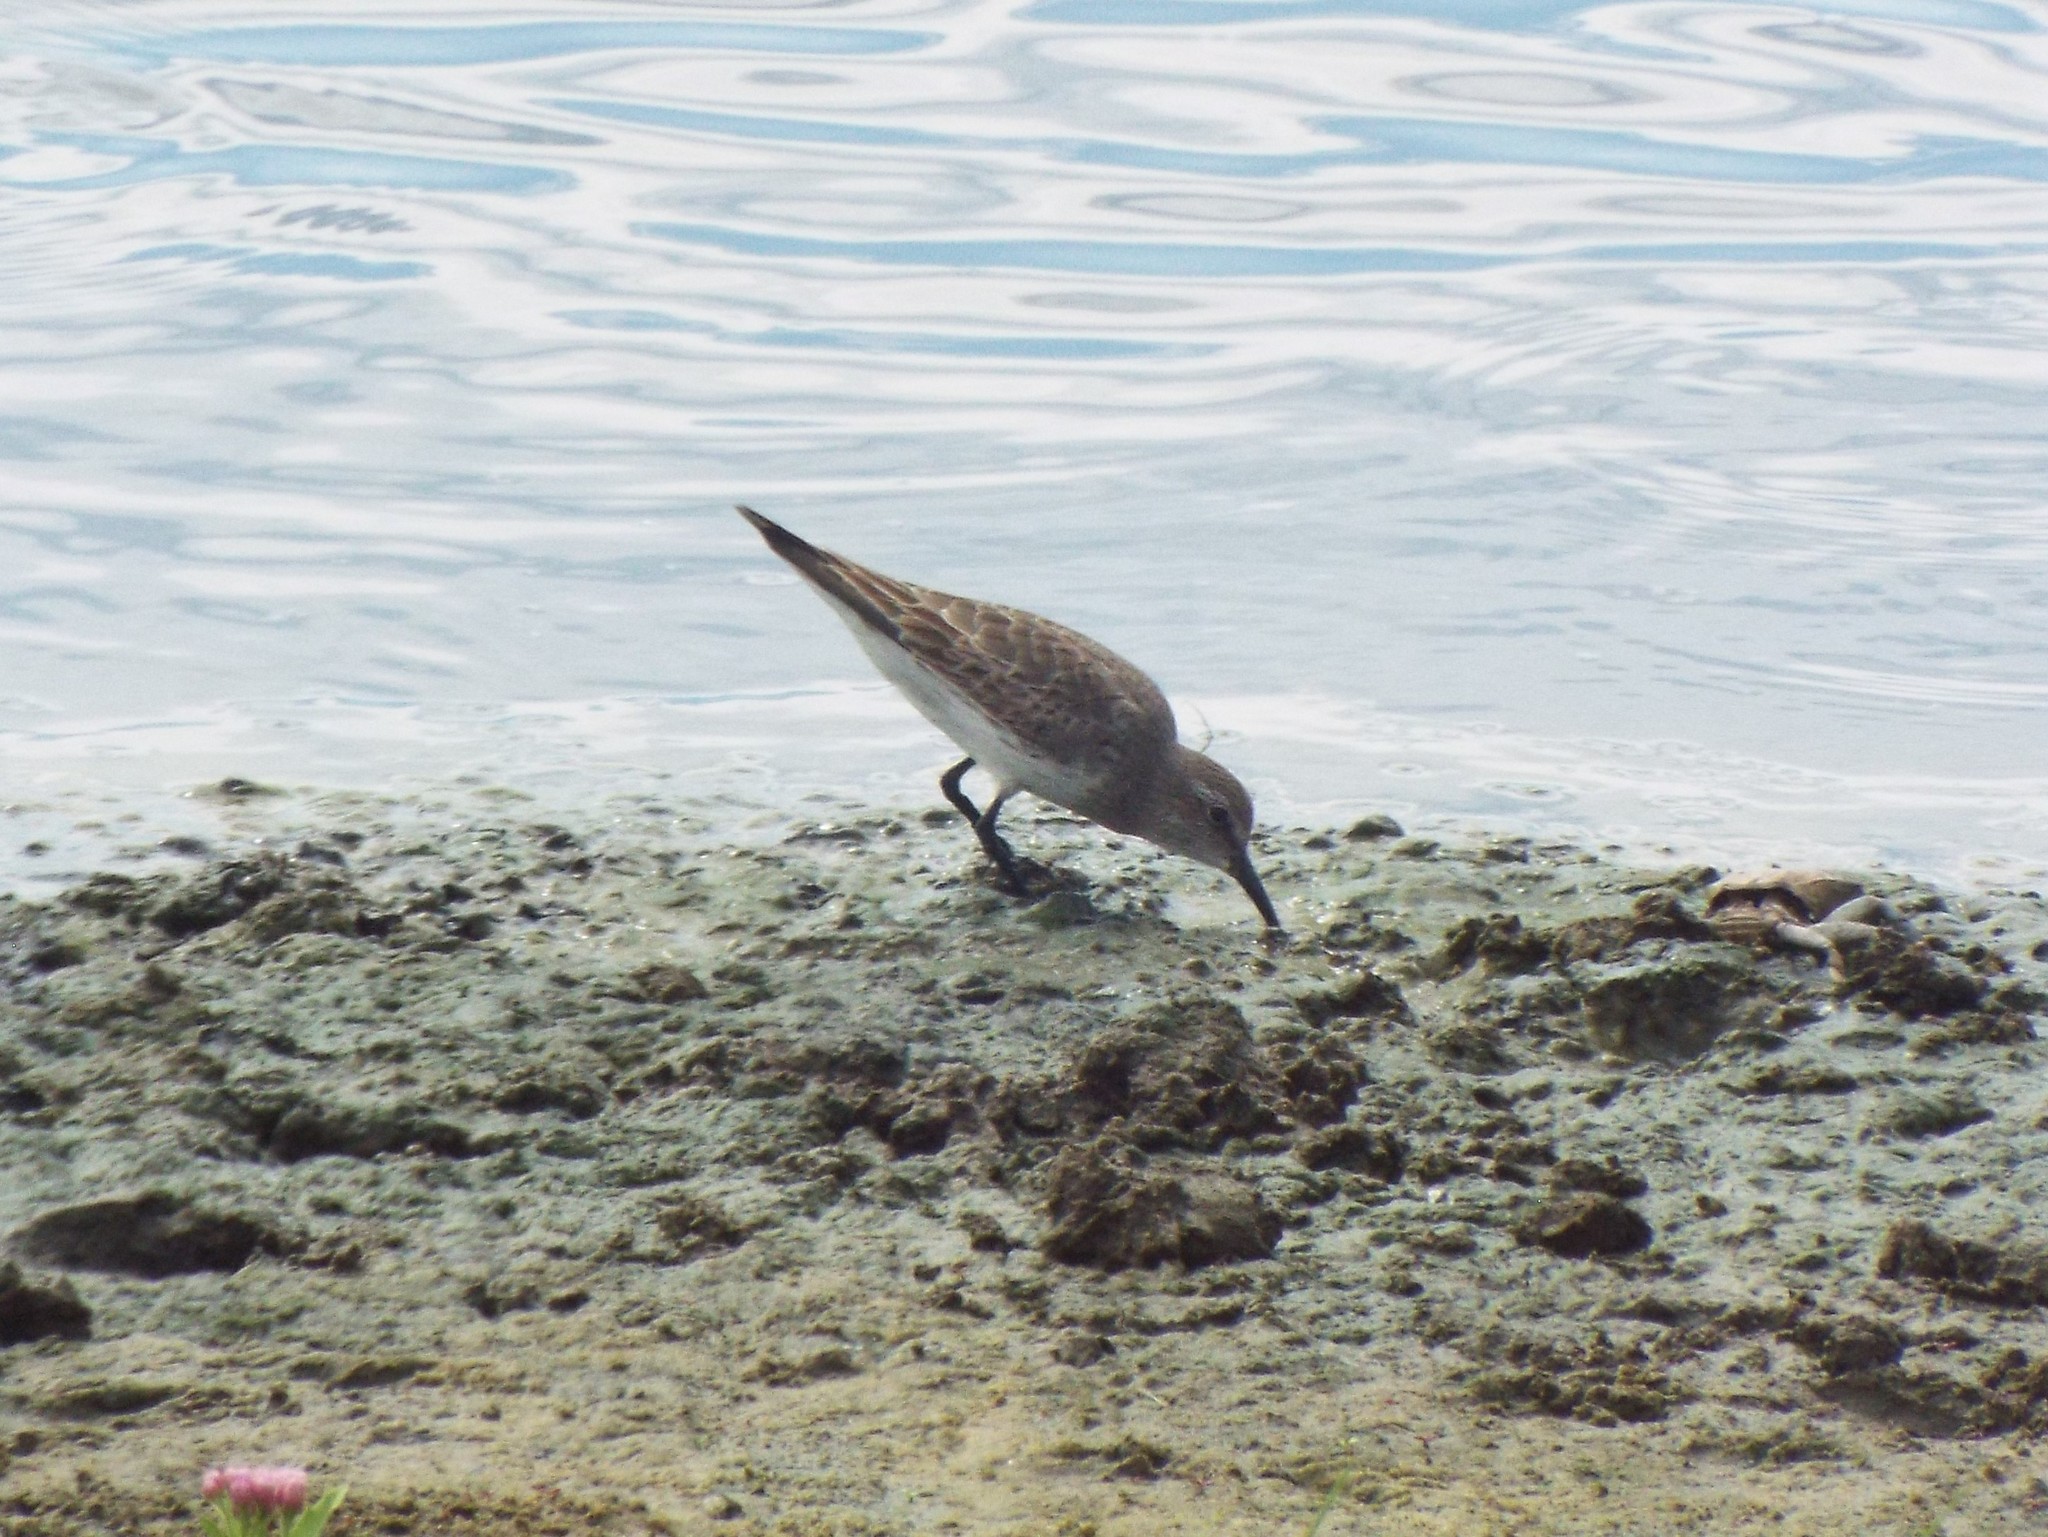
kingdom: Animalia
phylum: Chordata
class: Aves
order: Charadriiformes
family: Scolopacidae
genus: Calidris
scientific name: Calidris fuscicollis
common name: White-rumped sandpiper
